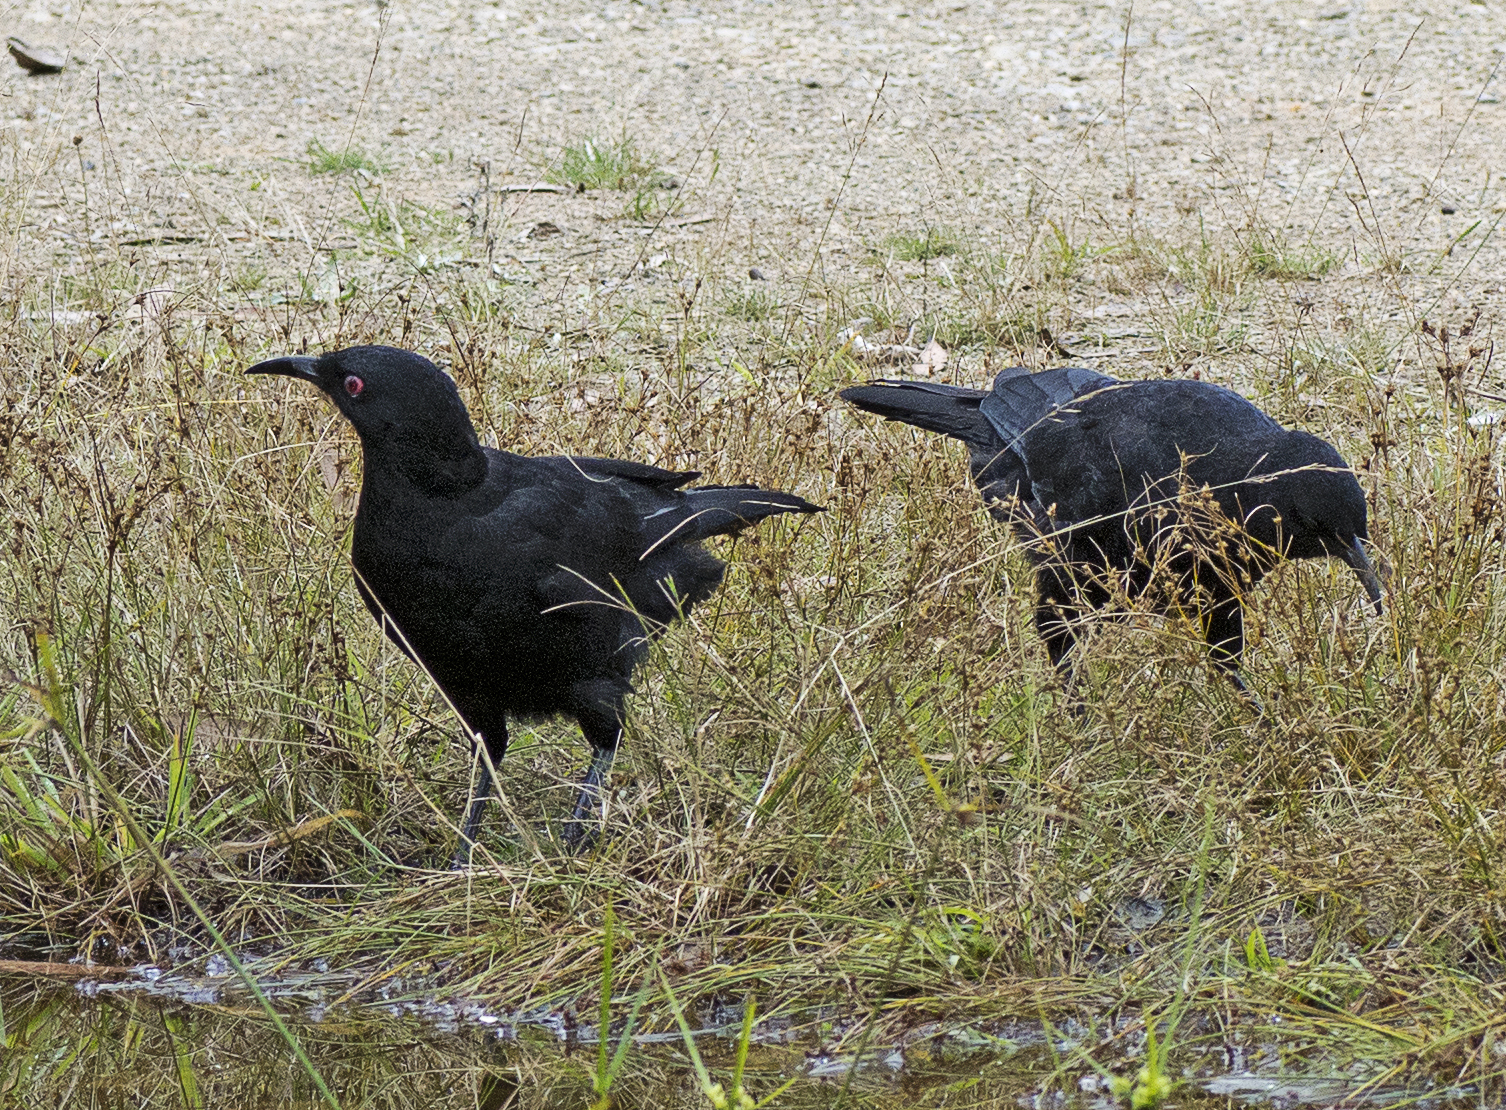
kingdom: Animalia
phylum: Chordata
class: Aves
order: Passeriformes
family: Corcoracidae
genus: Corcorax
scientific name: Corcorax melanoramphos
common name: White-winged chough
